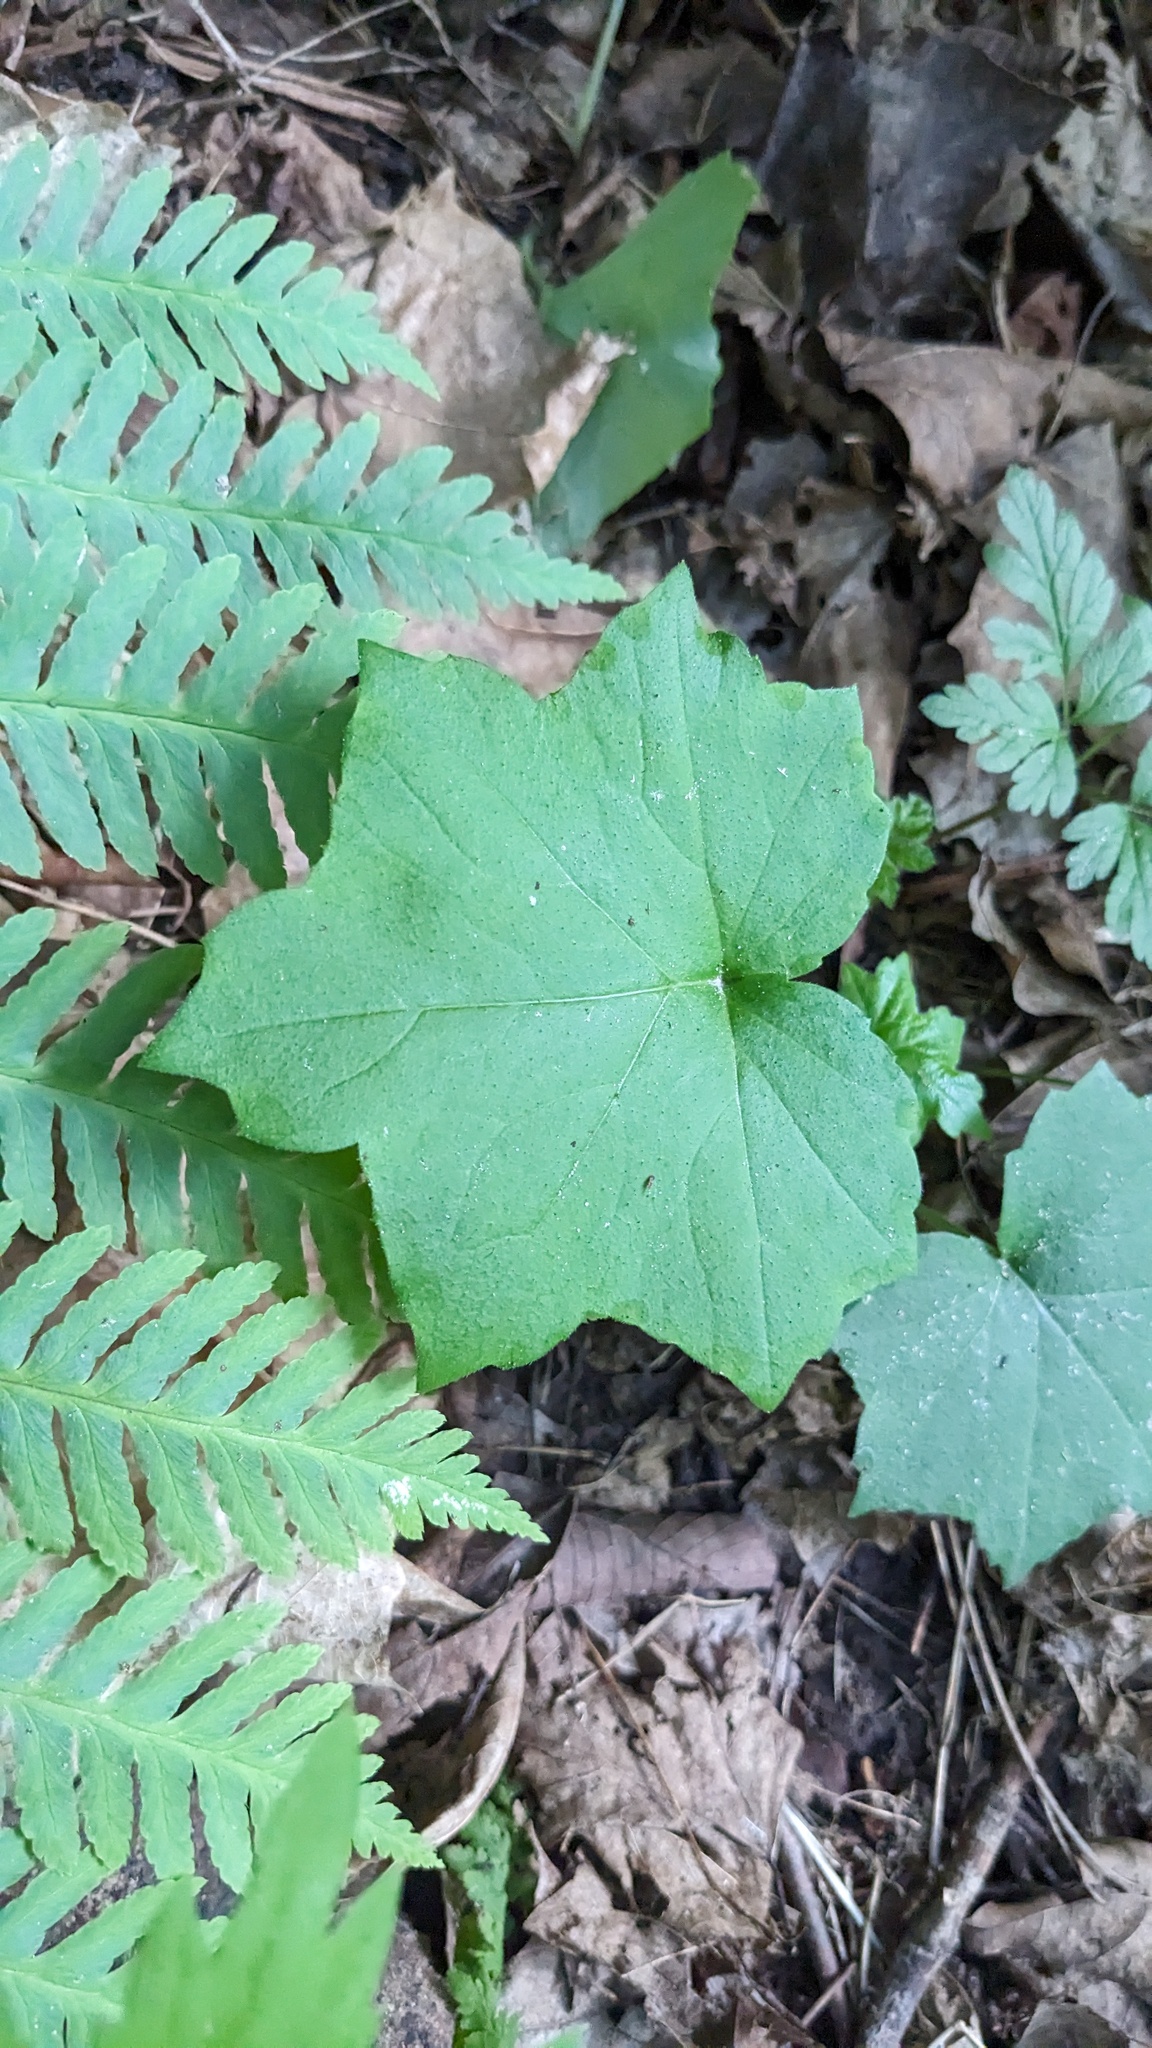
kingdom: Plantae
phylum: Tracheophyta
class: Magnoliopsida
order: Boraginales
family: Hydrophyllaceae
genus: Hydrophyllum
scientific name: Hydrophyllum appendiculatum
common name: Appendaged waterleaf
